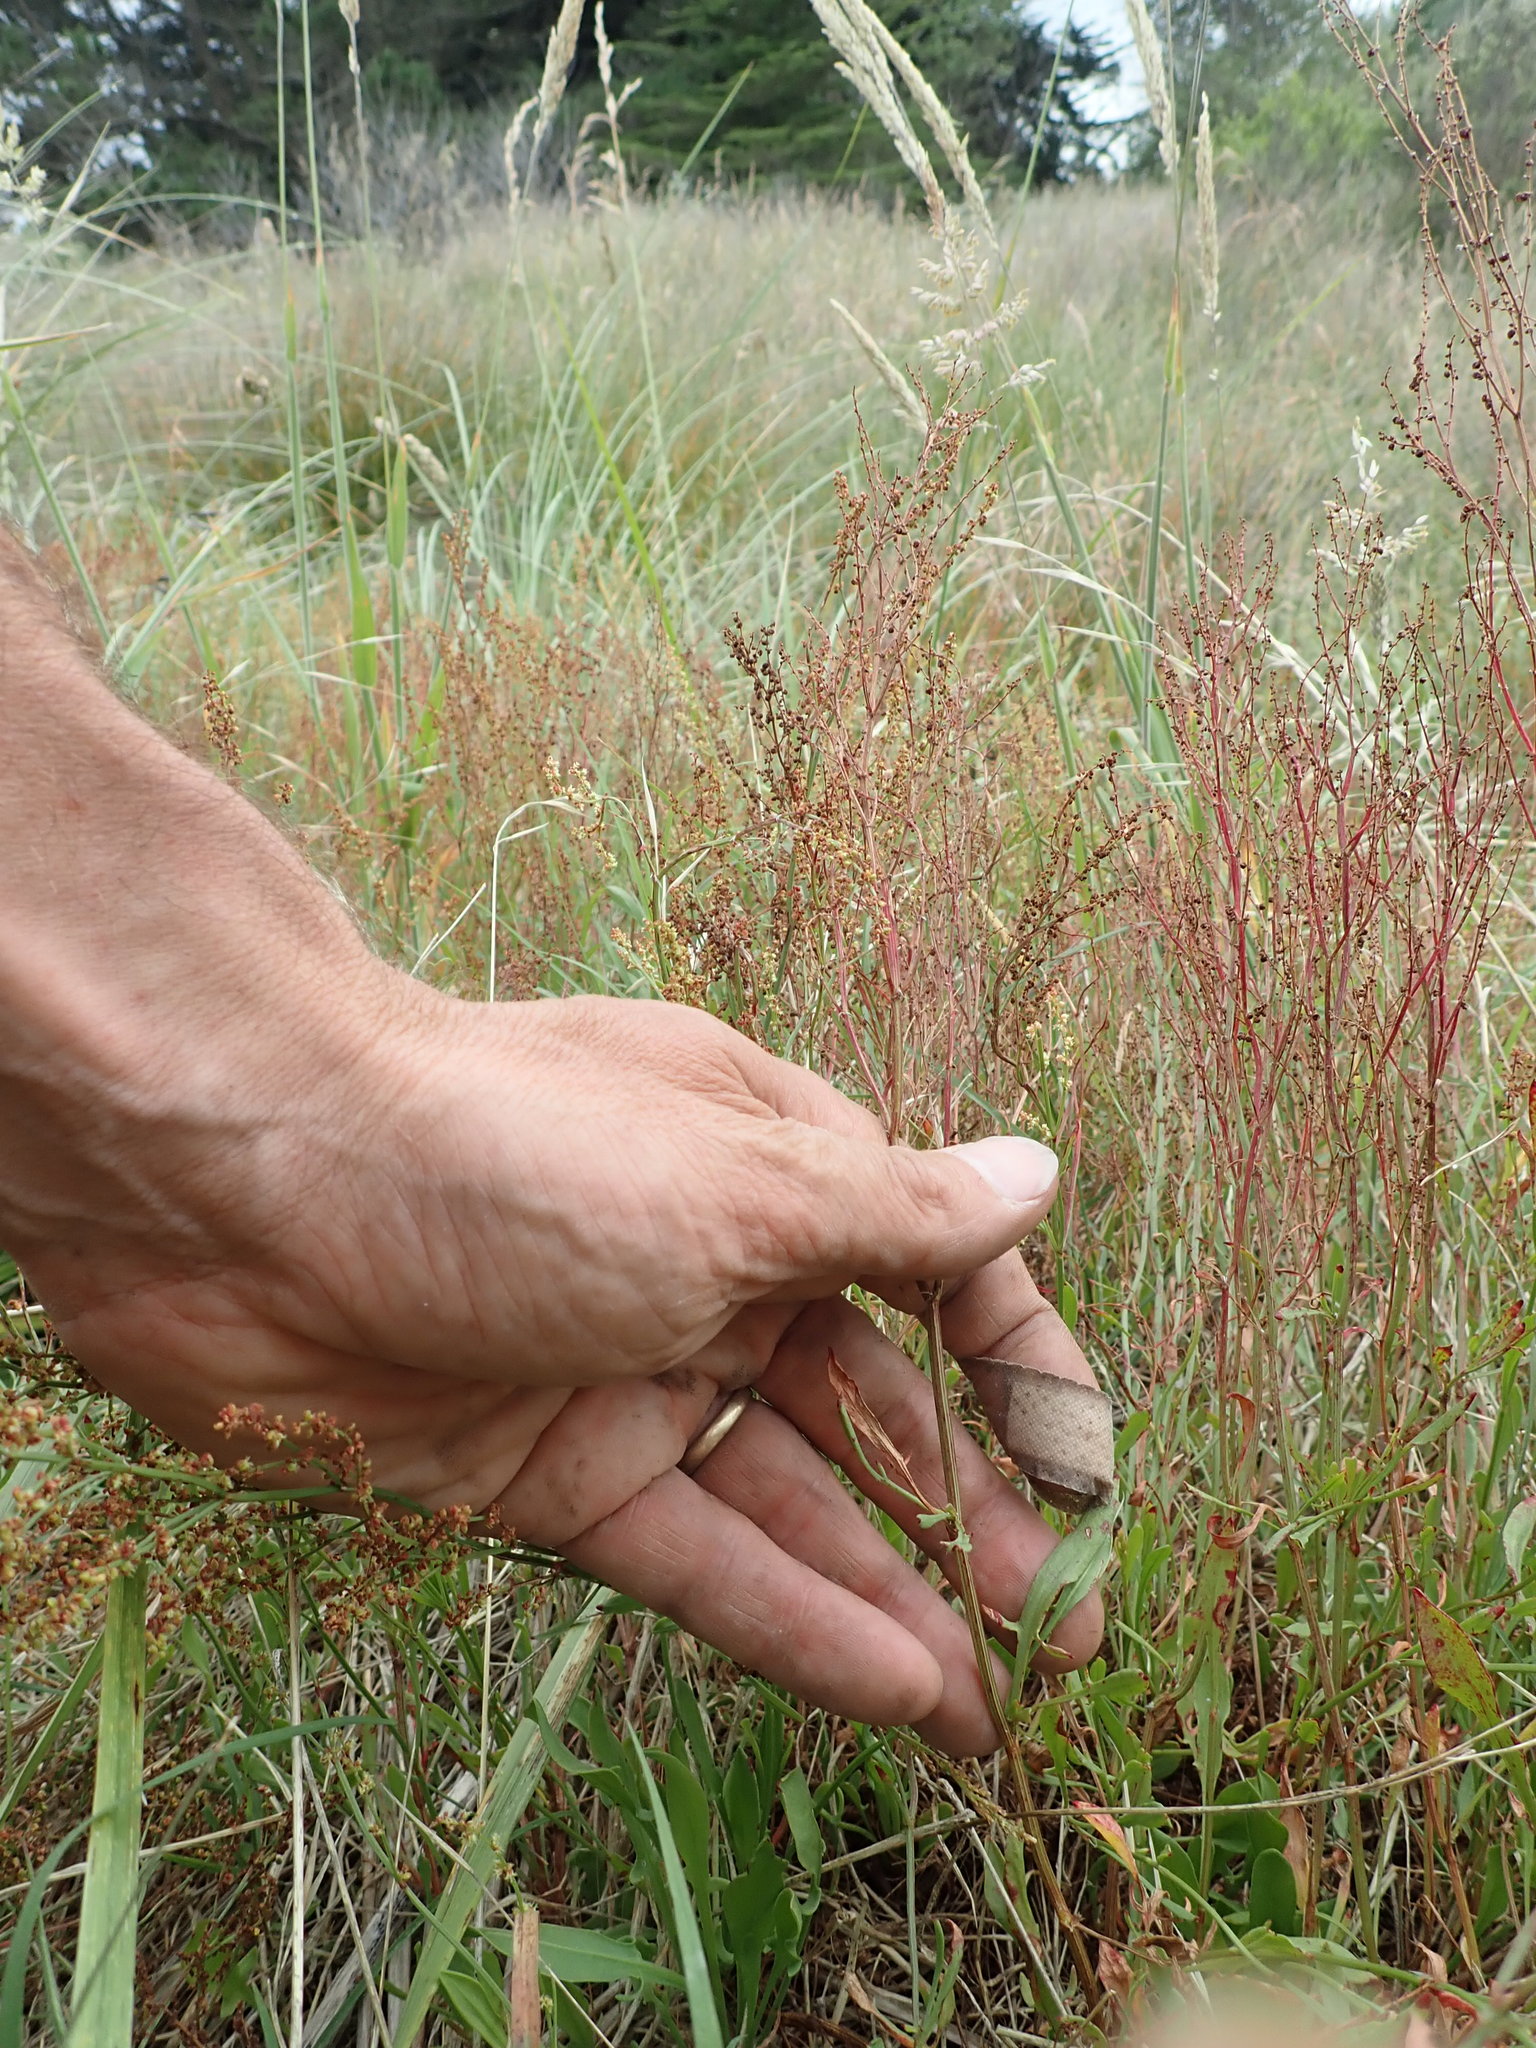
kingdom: Plantae
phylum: Tracheophyta
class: Magnoliopsida
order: Caryophyllales
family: Polygonaceae
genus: Rumex
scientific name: Rumex acetosella
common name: Common sheep sorrel
